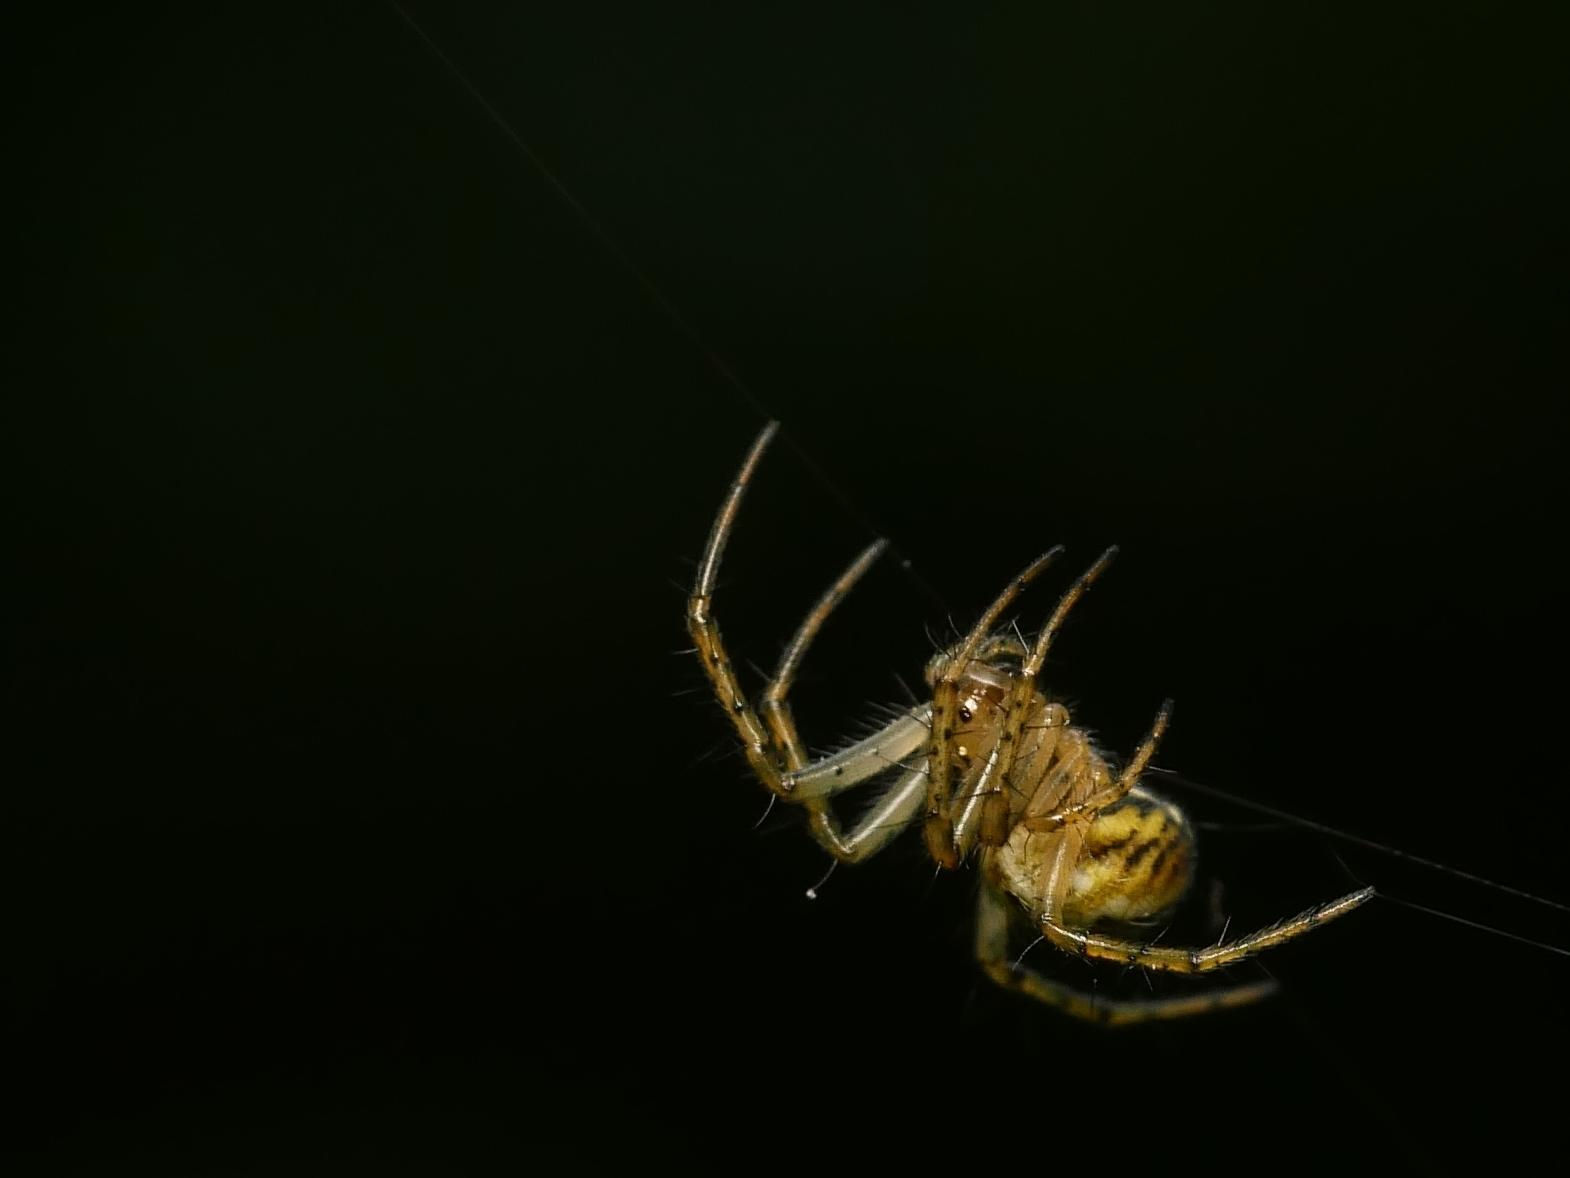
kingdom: Animalia
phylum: Arthropoda
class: Arachnida
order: Araneae
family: Araneidae
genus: Mangora
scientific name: Mangora acalypha
